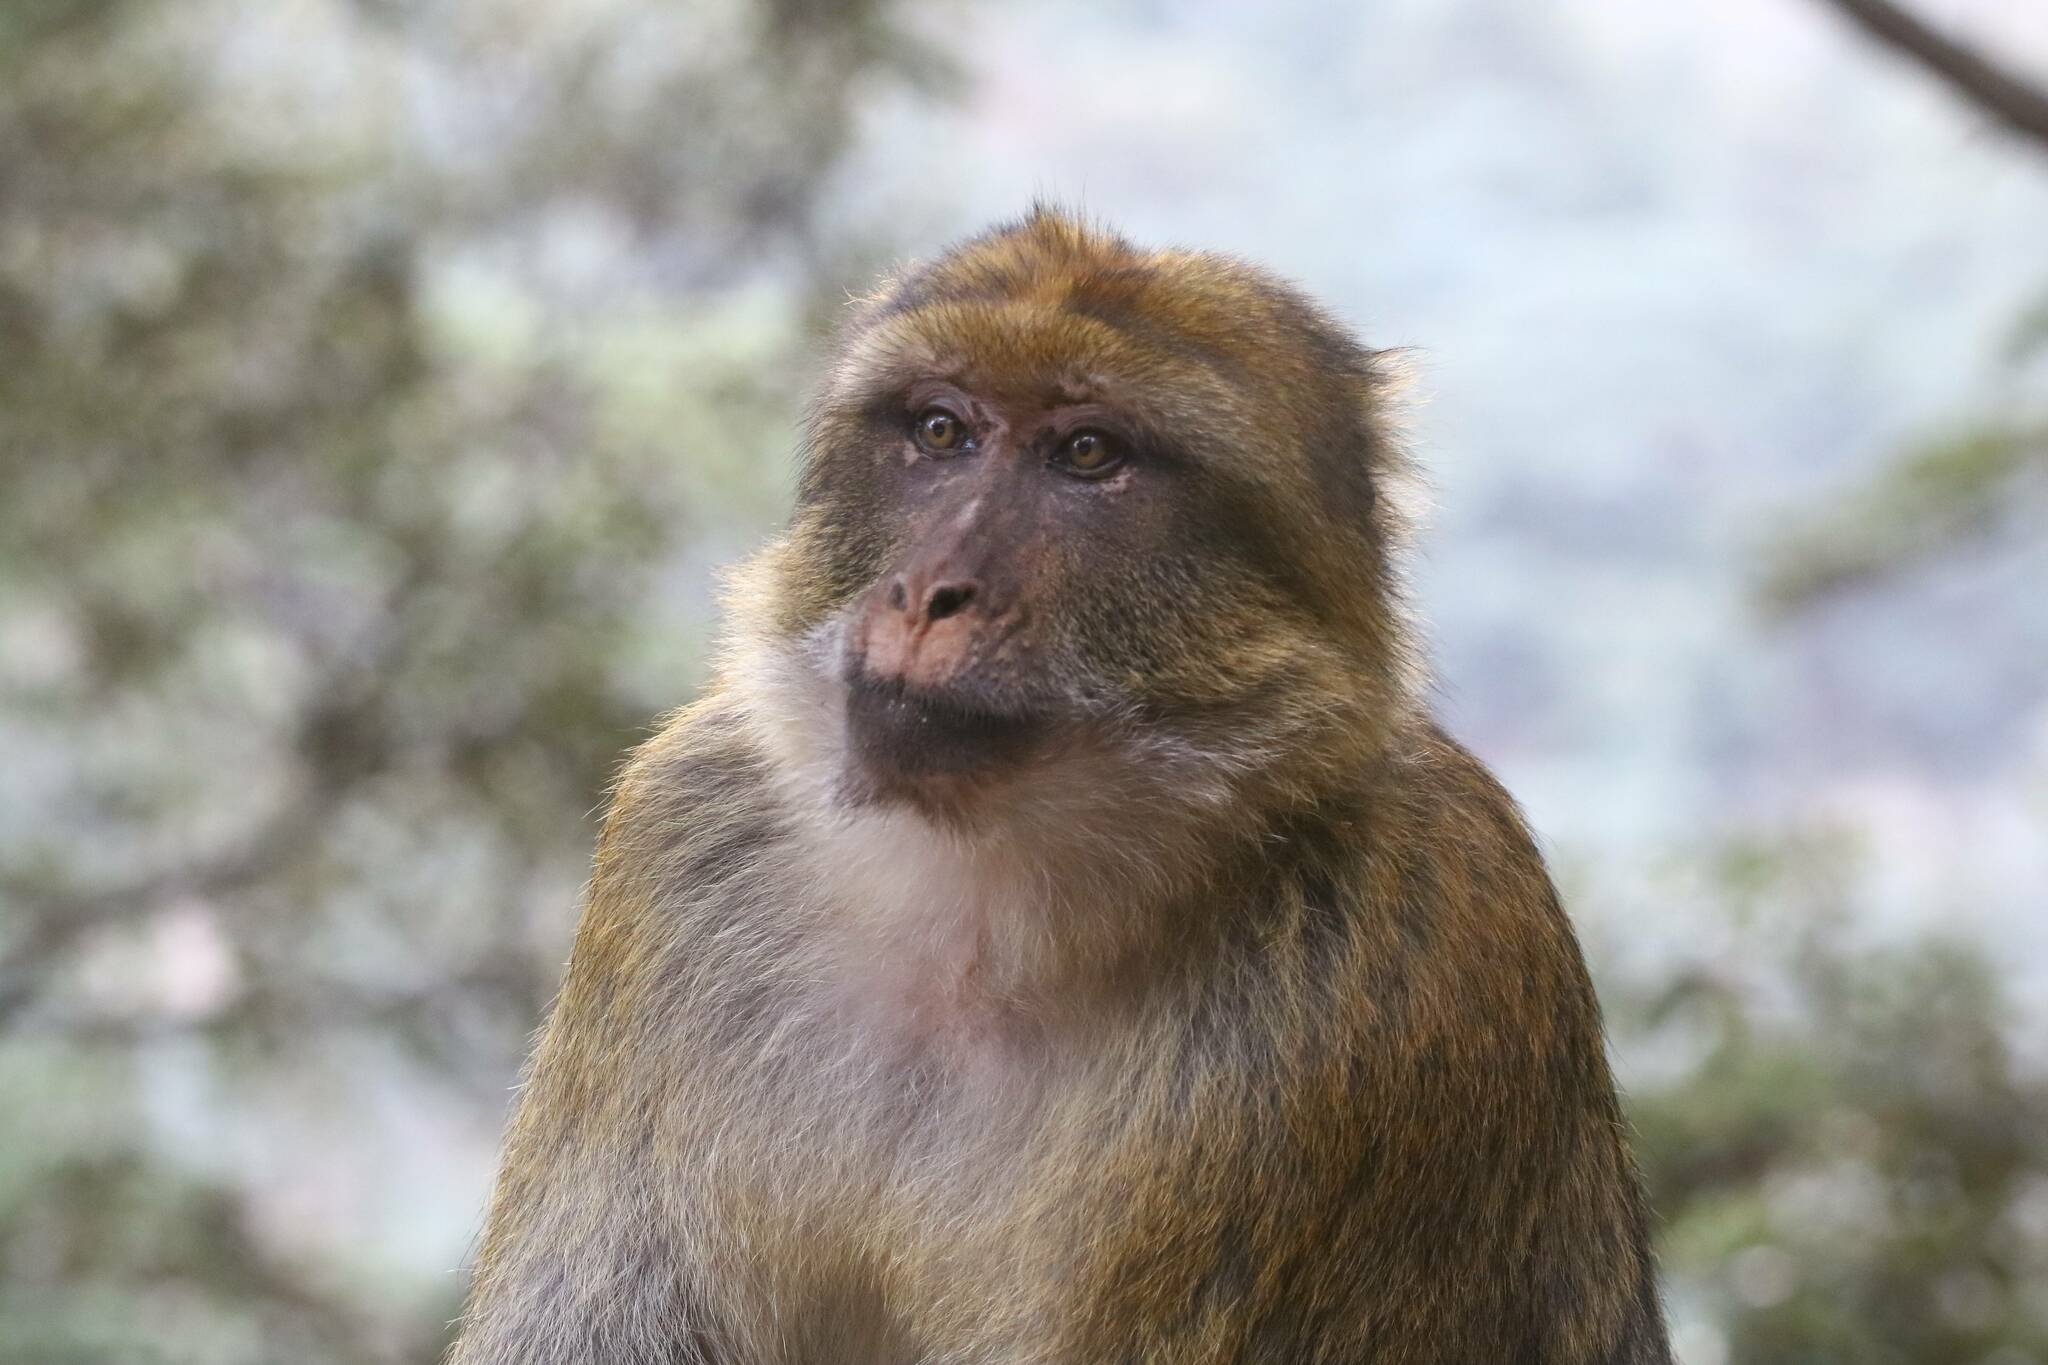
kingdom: Animalia
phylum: Chordata
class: Mammalia
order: Primates
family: Cercopithecidae
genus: Macaca
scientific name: Macaca sylvanus
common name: Barbary macaque
